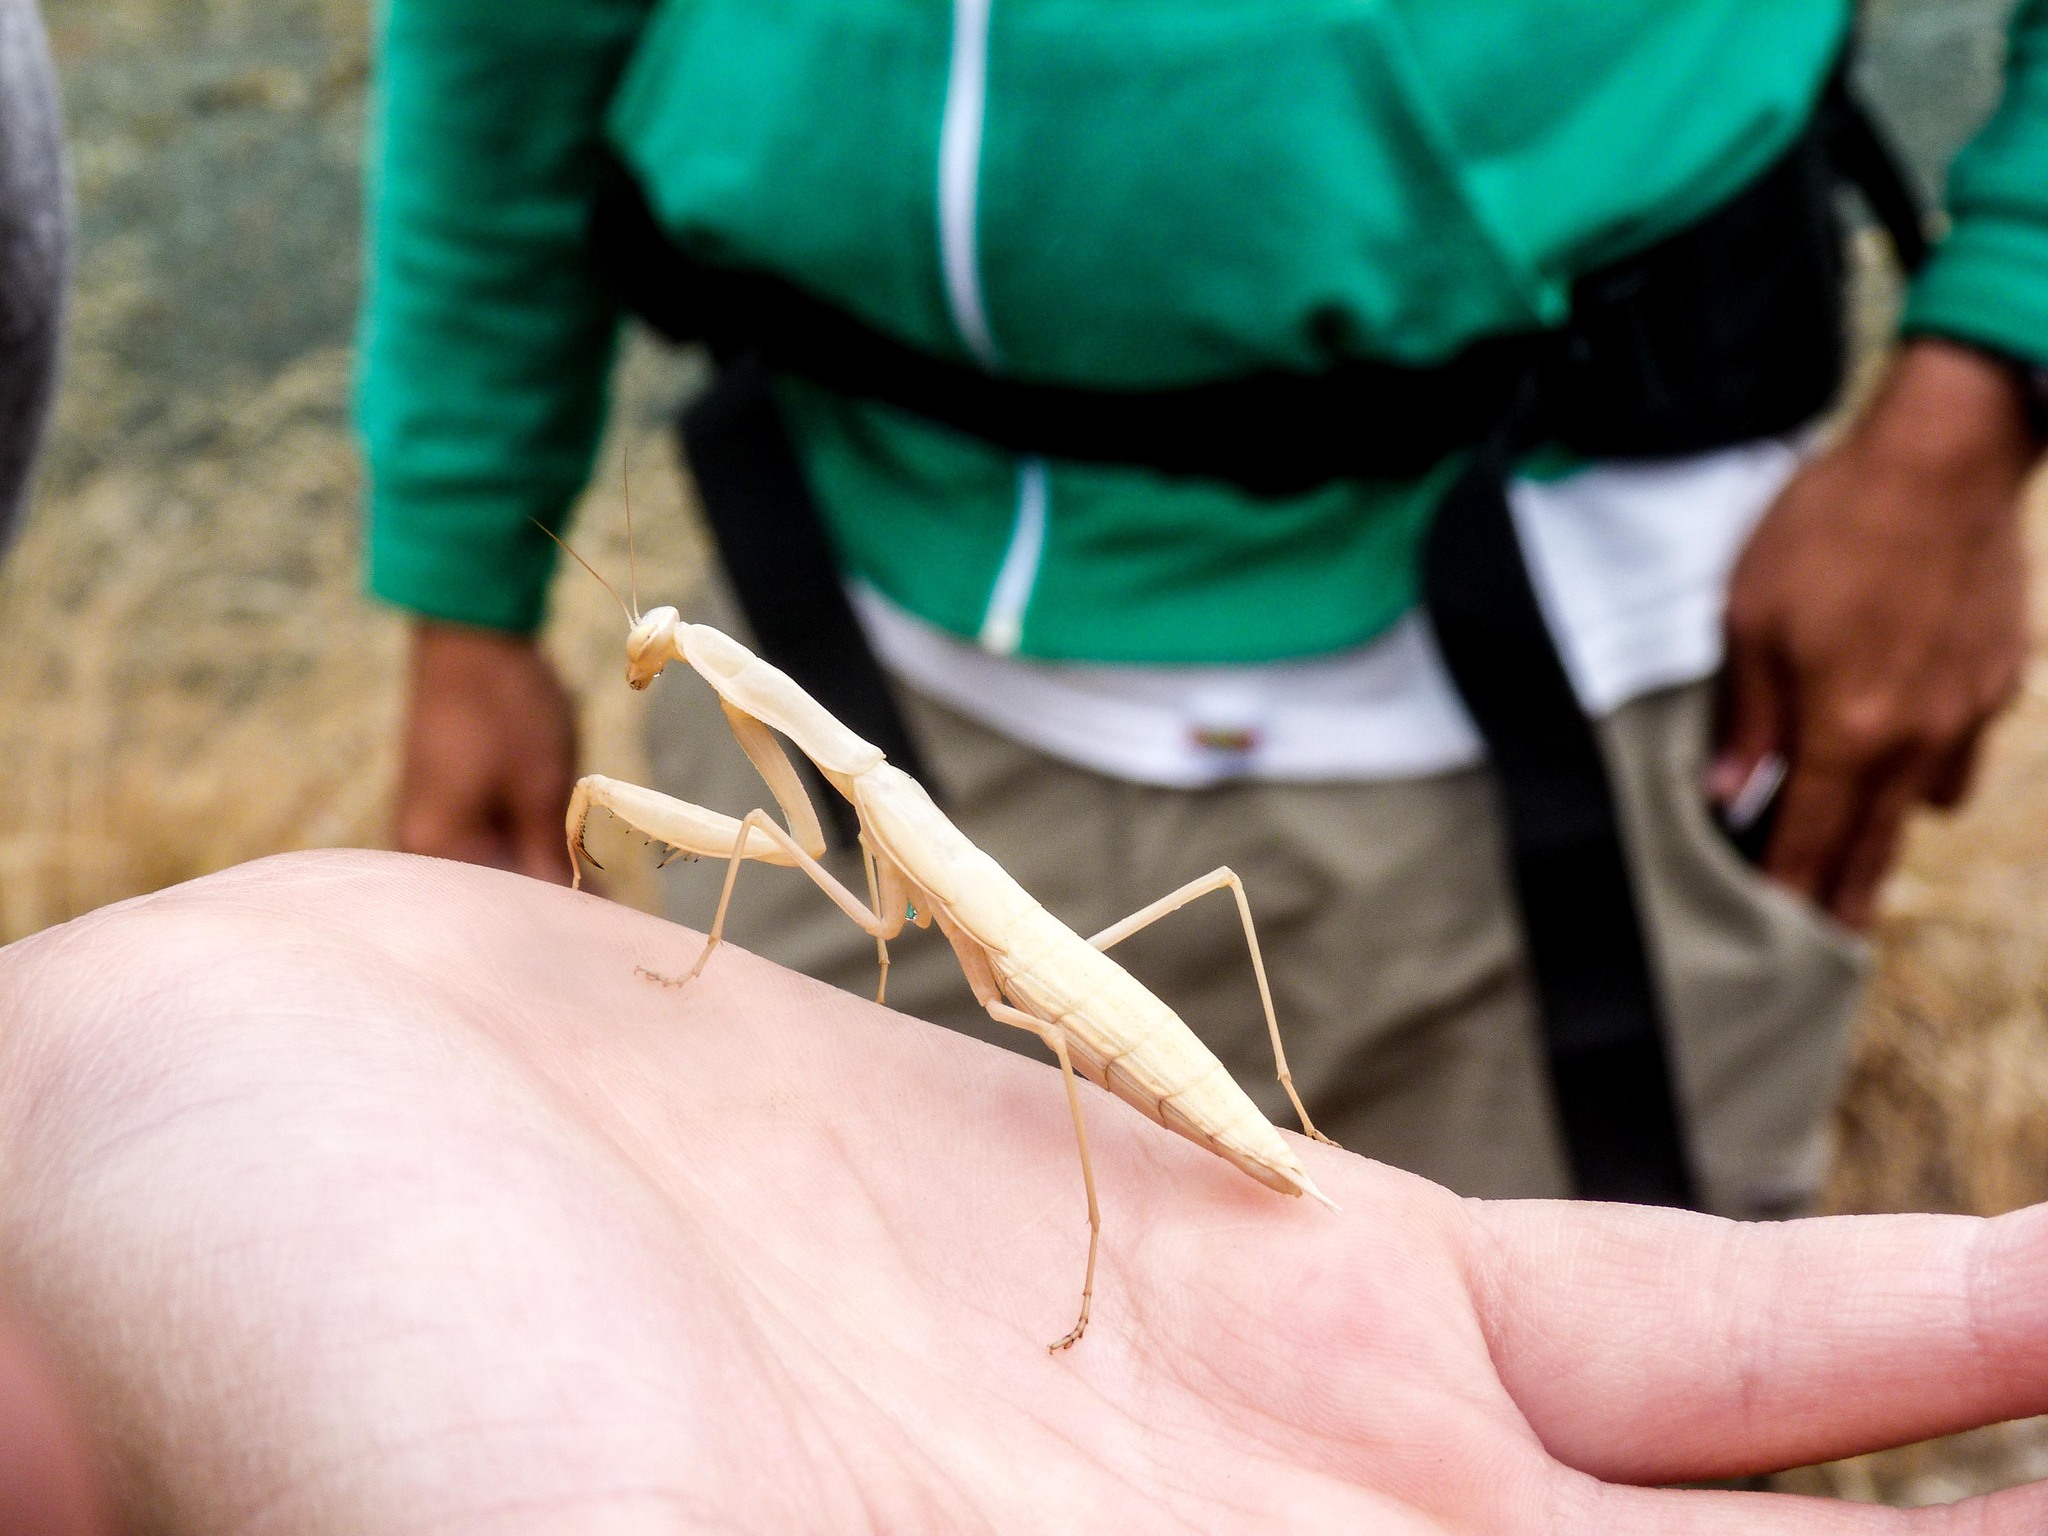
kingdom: Animalia
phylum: Arthropoda
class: Insecta
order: Mantodea
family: Mantidae
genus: Mantis
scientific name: Mantis religiosa
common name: Praying mantis
